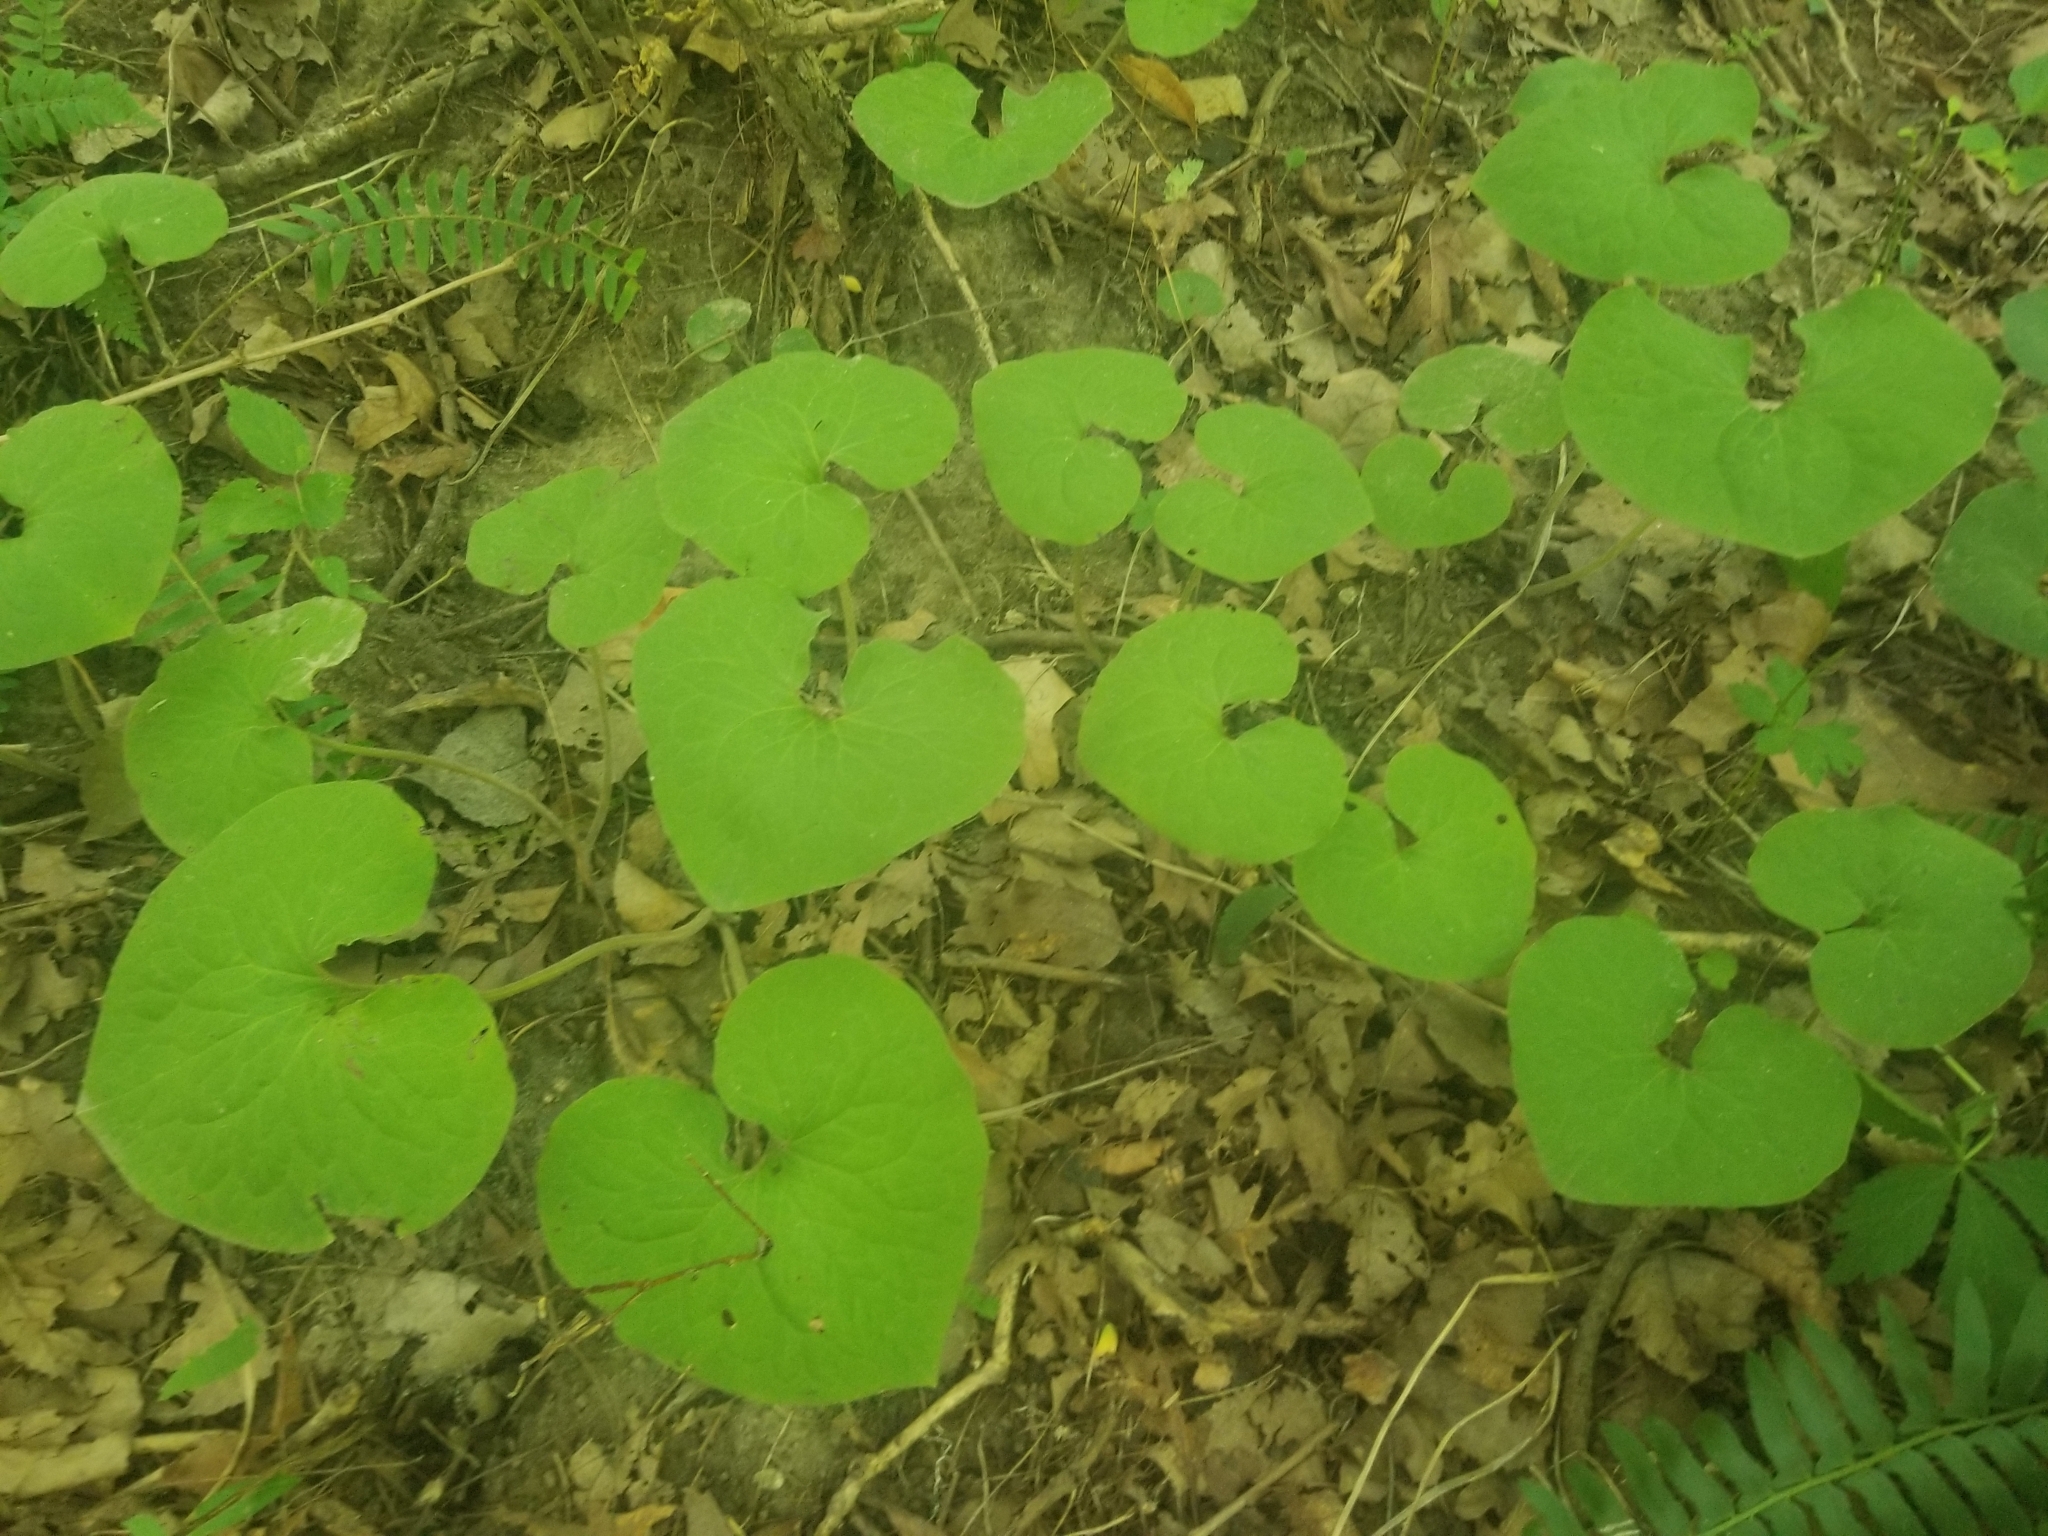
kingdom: Plantae
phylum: Tracheophyta
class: Magnoliopsida
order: Piperales
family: Aristolochiaceae
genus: Asarum
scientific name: Asarum canadense
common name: Wild ginger
